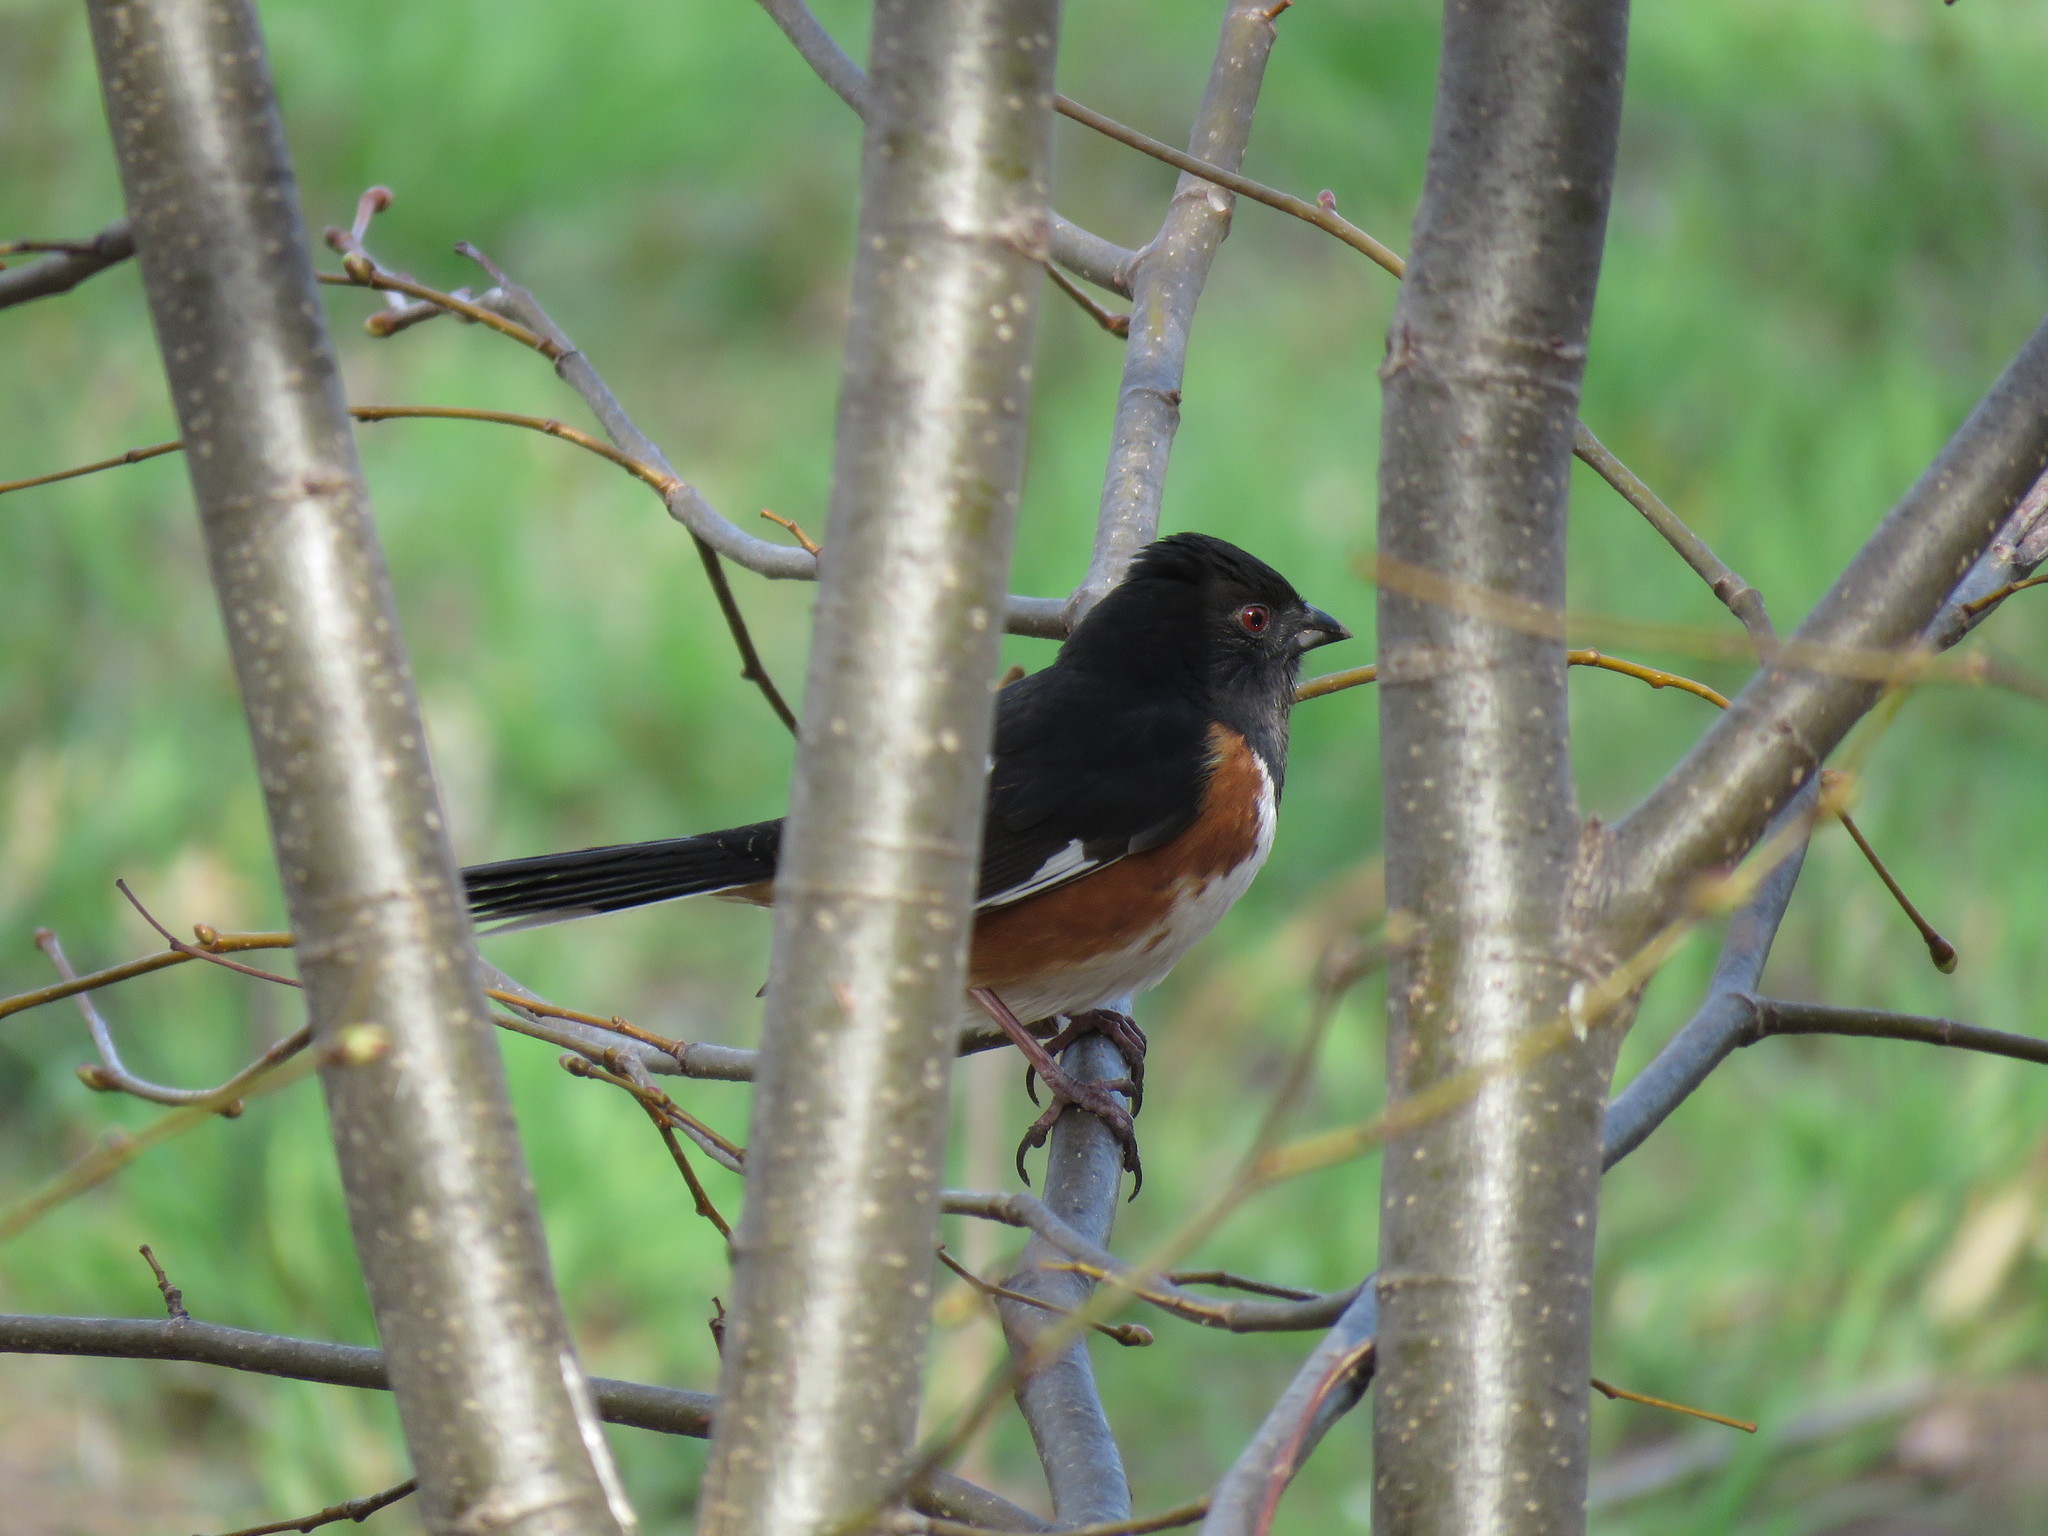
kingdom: Animalia
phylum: Chordata
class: Aves
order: Passeriformes
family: Passerellidae
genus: Pipilo
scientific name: Pipilo erythrophthalmus
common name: Eastern towhee
